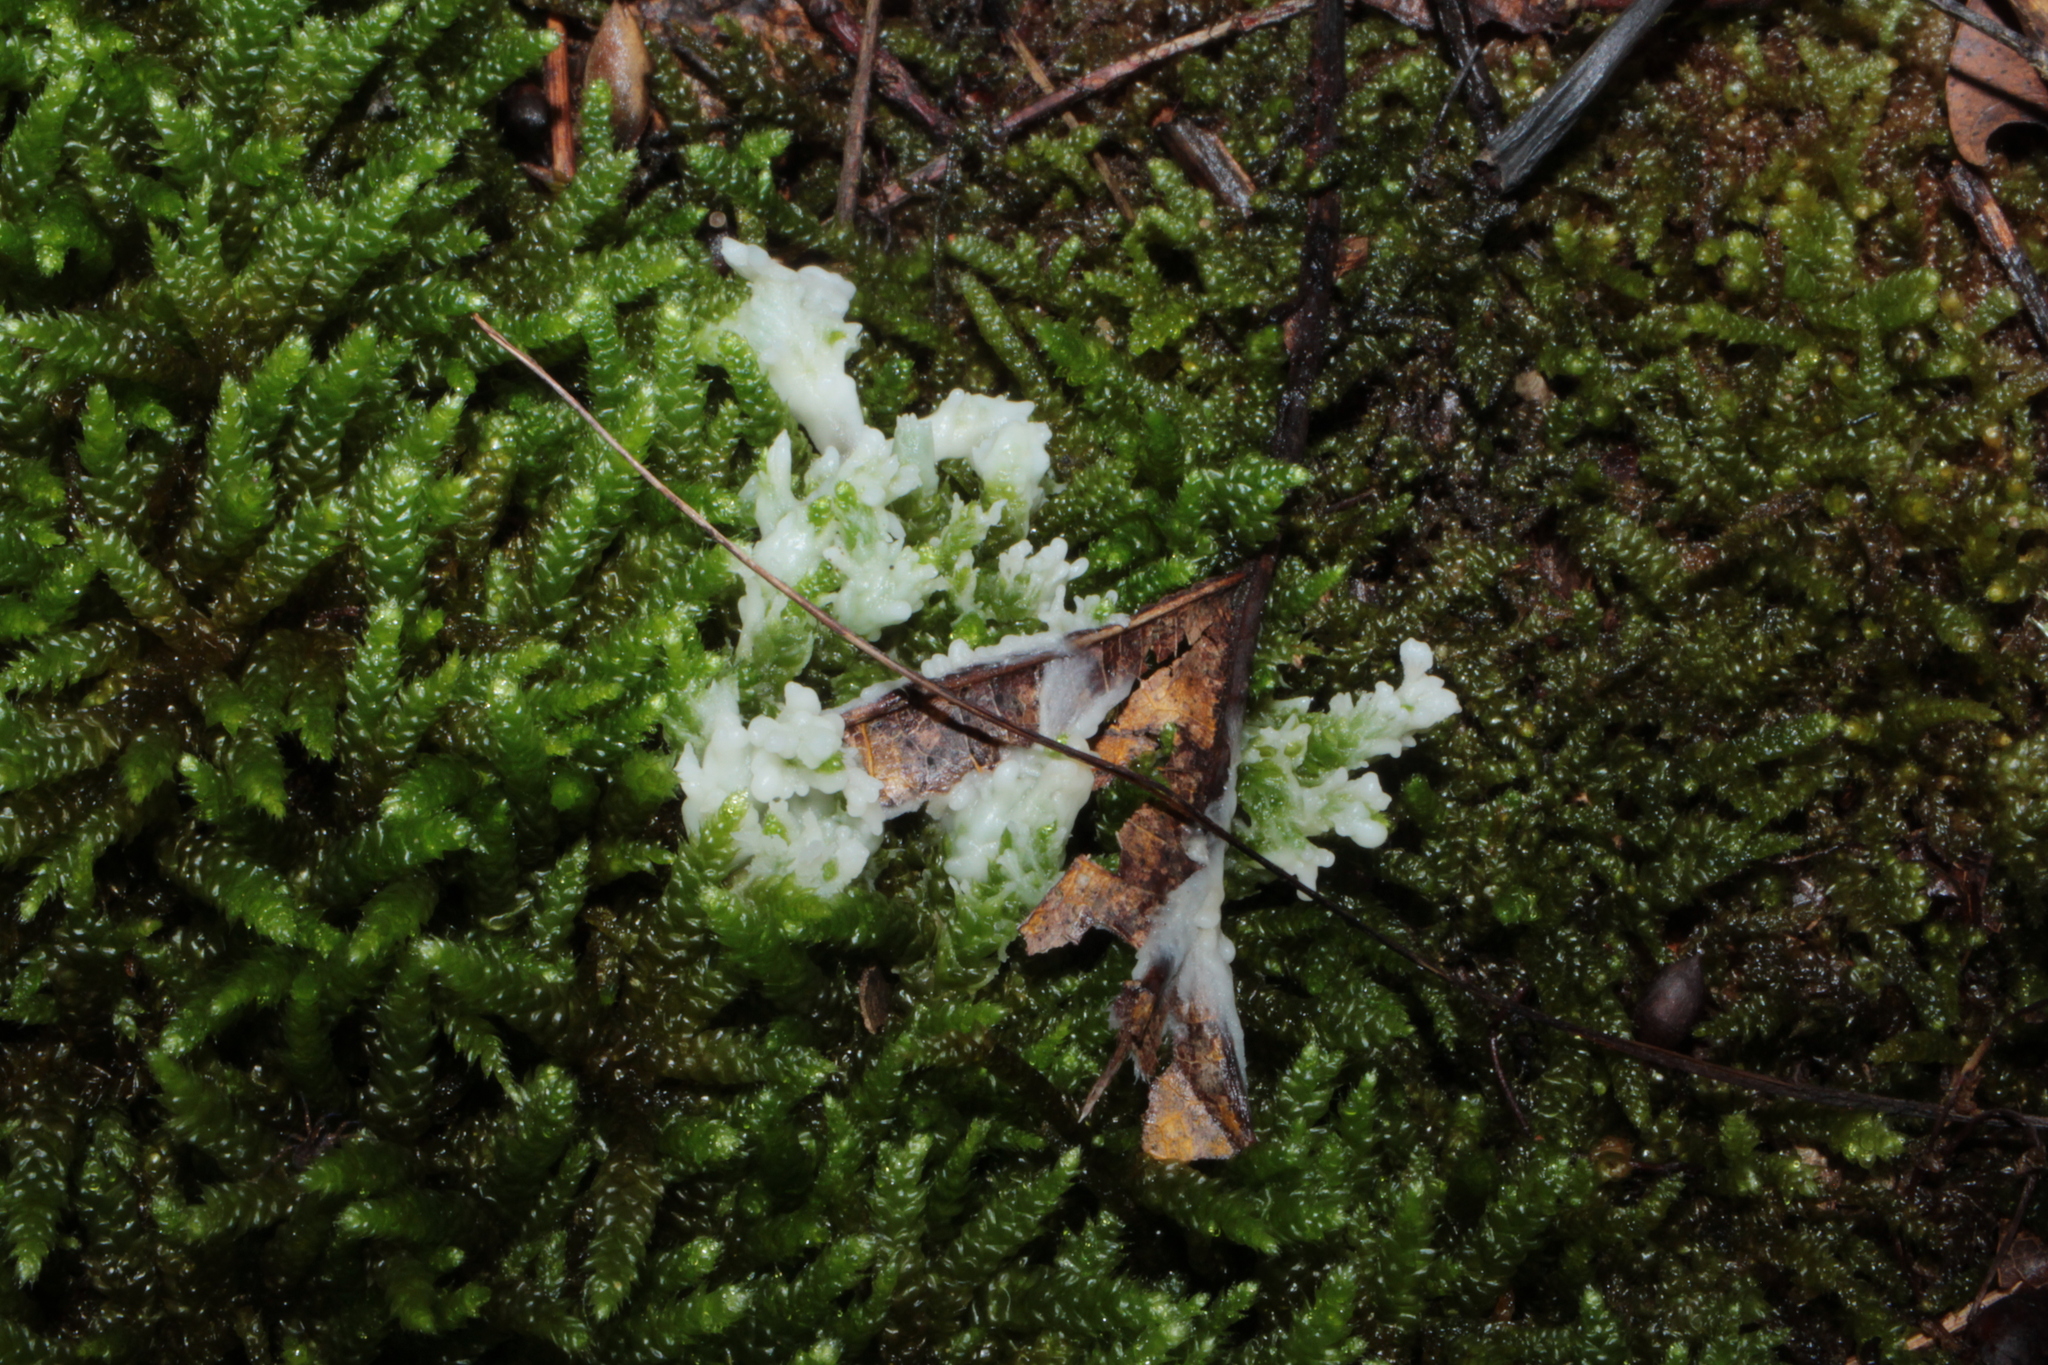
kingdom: Fungi
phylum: Basidiomycota
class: Agaricomycetes
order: Sebacinales
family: Sebacinaceae
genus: Sebacina
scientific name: Sebacina incrustans
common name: Enveloping crust
